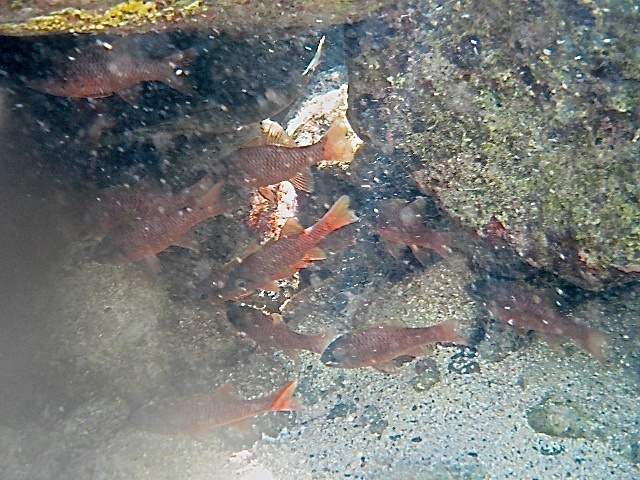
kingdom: Animalia
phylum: Chordata
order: Perciformes
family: Apogonidae
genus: Pristiapogon
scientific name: Pristiapogon kallopterus
